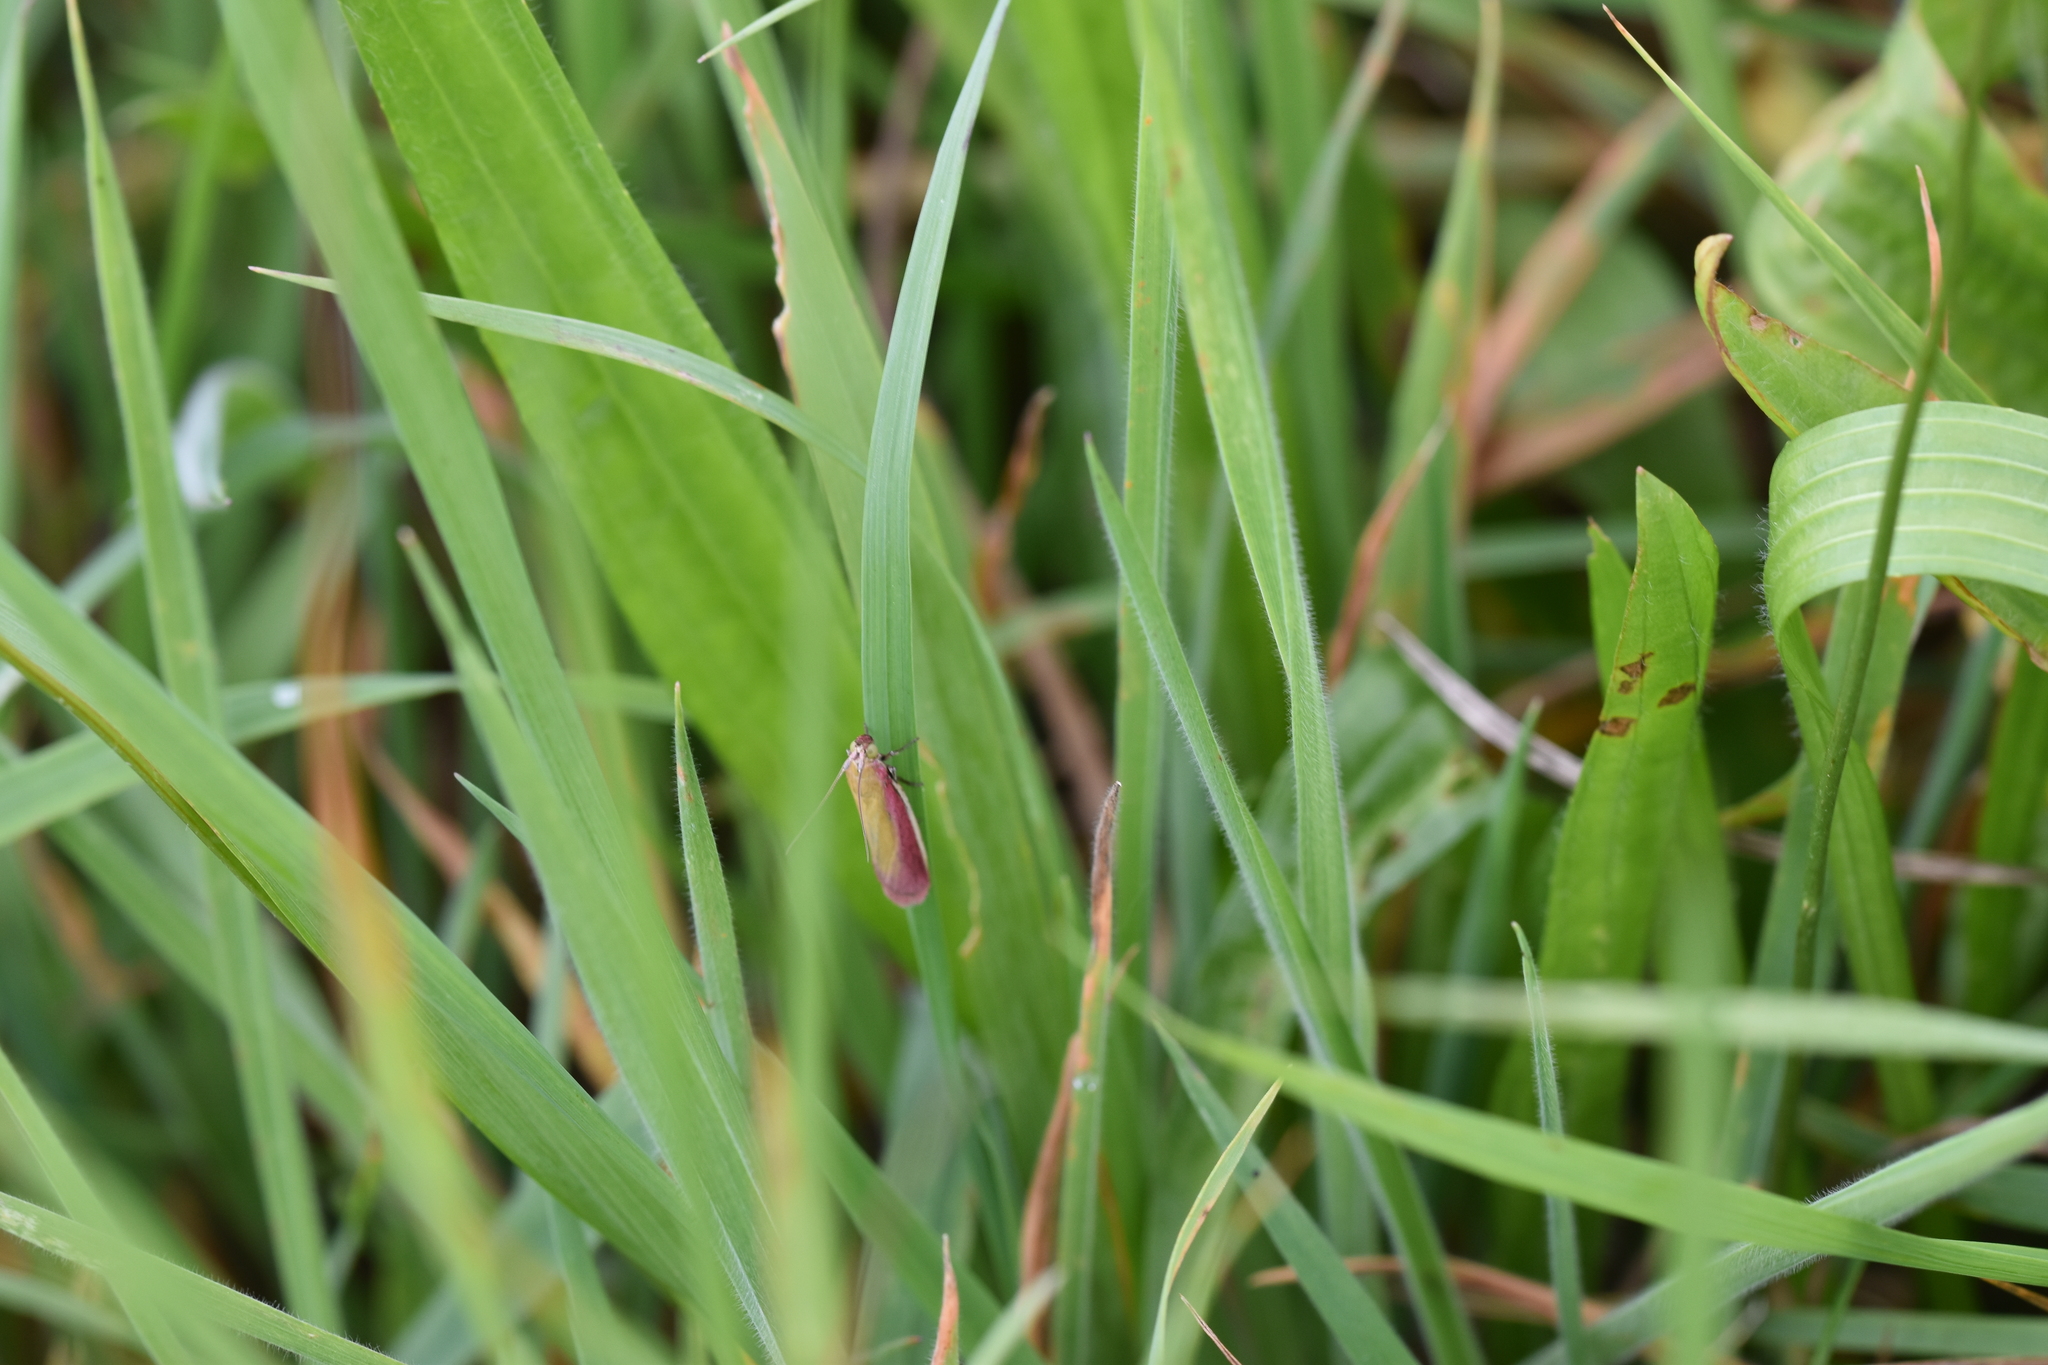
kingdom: Animalia
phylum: Arthropoda
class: Insecta
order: Lepidoptera
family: Pyralidae
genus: Oncocera
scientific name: Oncocera semirubella
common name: Rosy-striped knot-horn
